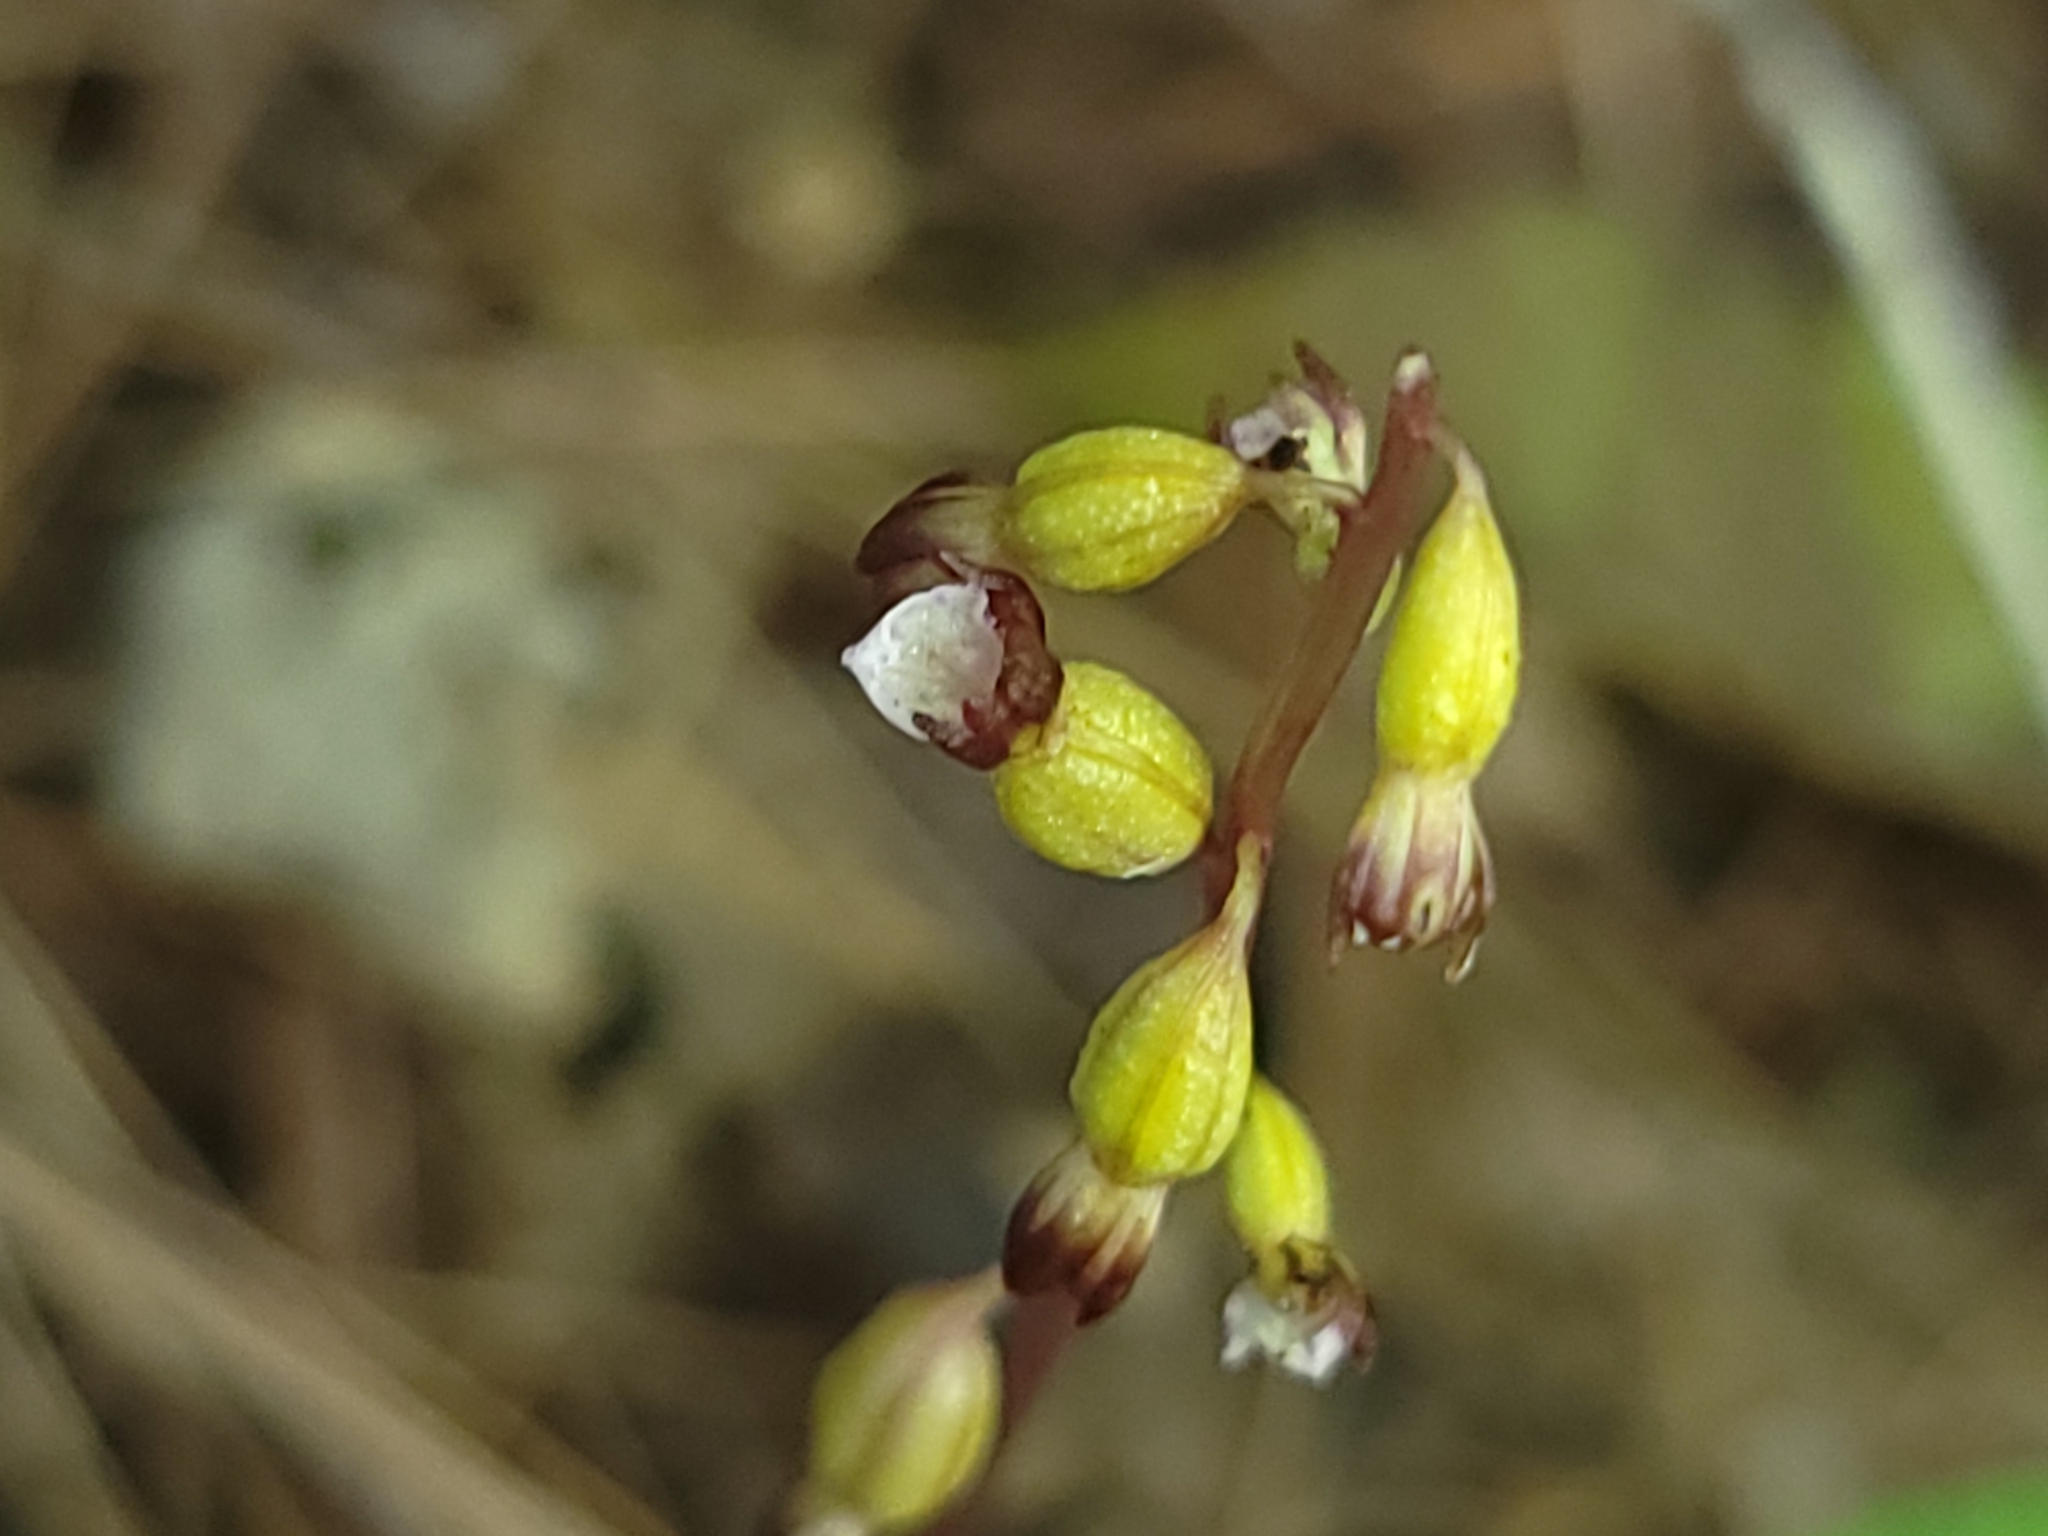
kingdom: Plantae
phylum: Tracheophyta
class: Liliopsida
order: Asparagales
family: Orchidaceae
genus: Corallorhiza
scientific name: Corallorhiza odontorhiza
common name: Autumn coralroot
